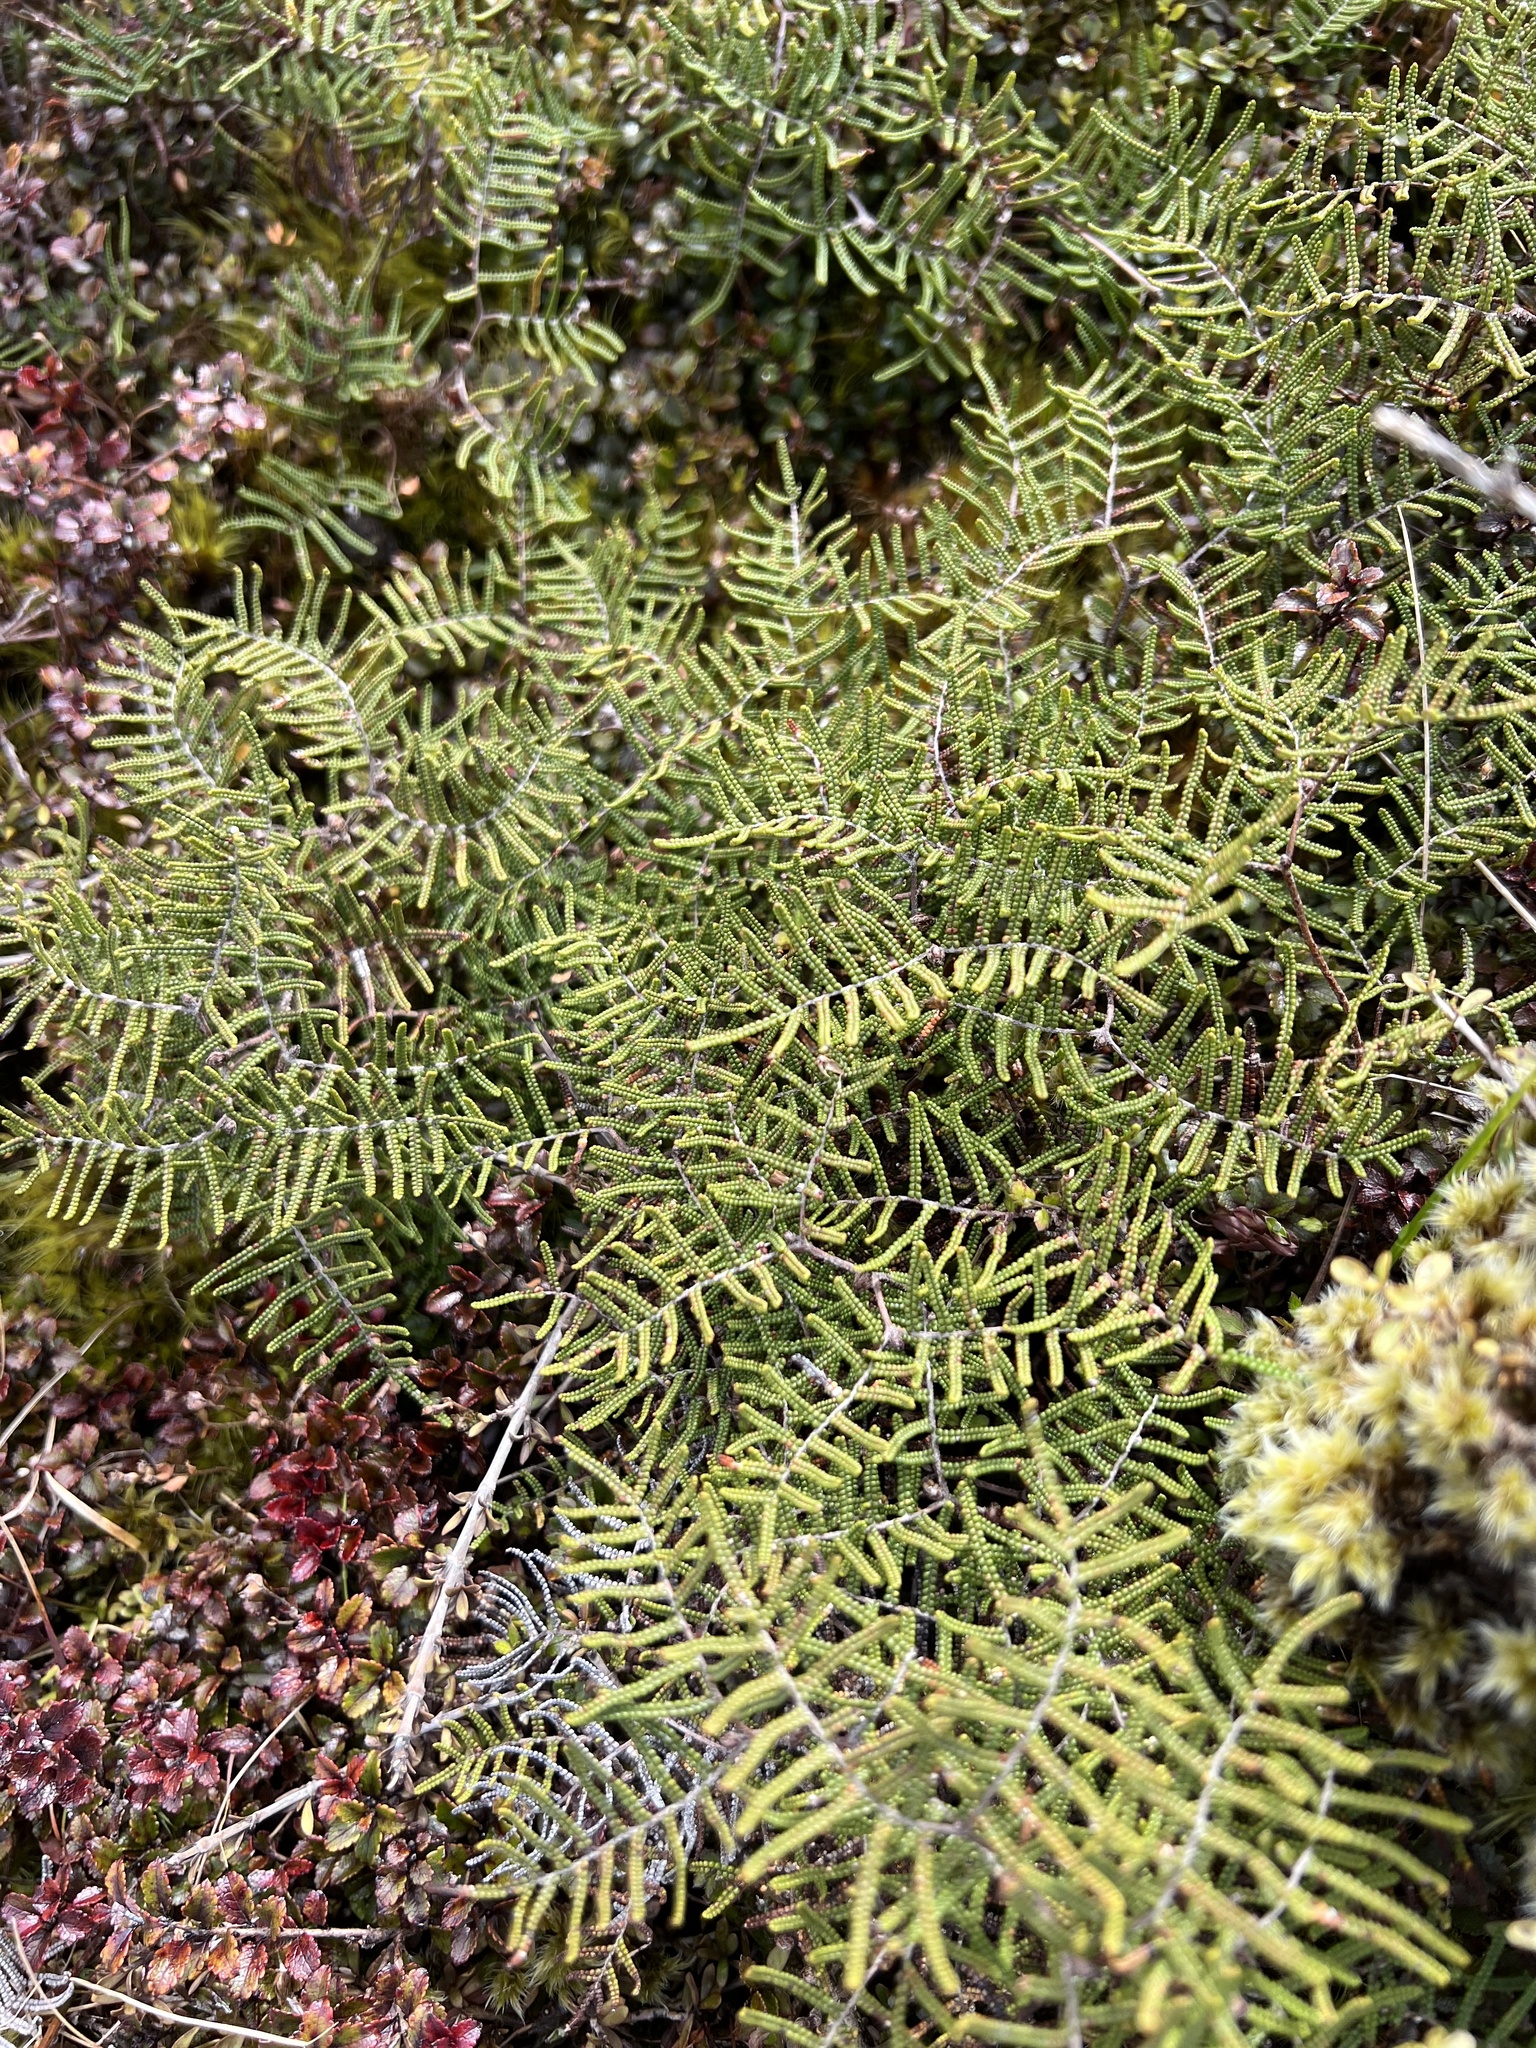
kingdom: Plantae
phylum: Tracheophyta
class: Polypodiopsida
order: Gleicheniales
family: Gleicheniaceae
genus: Gleichenia
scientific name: Gleichenia alpina
